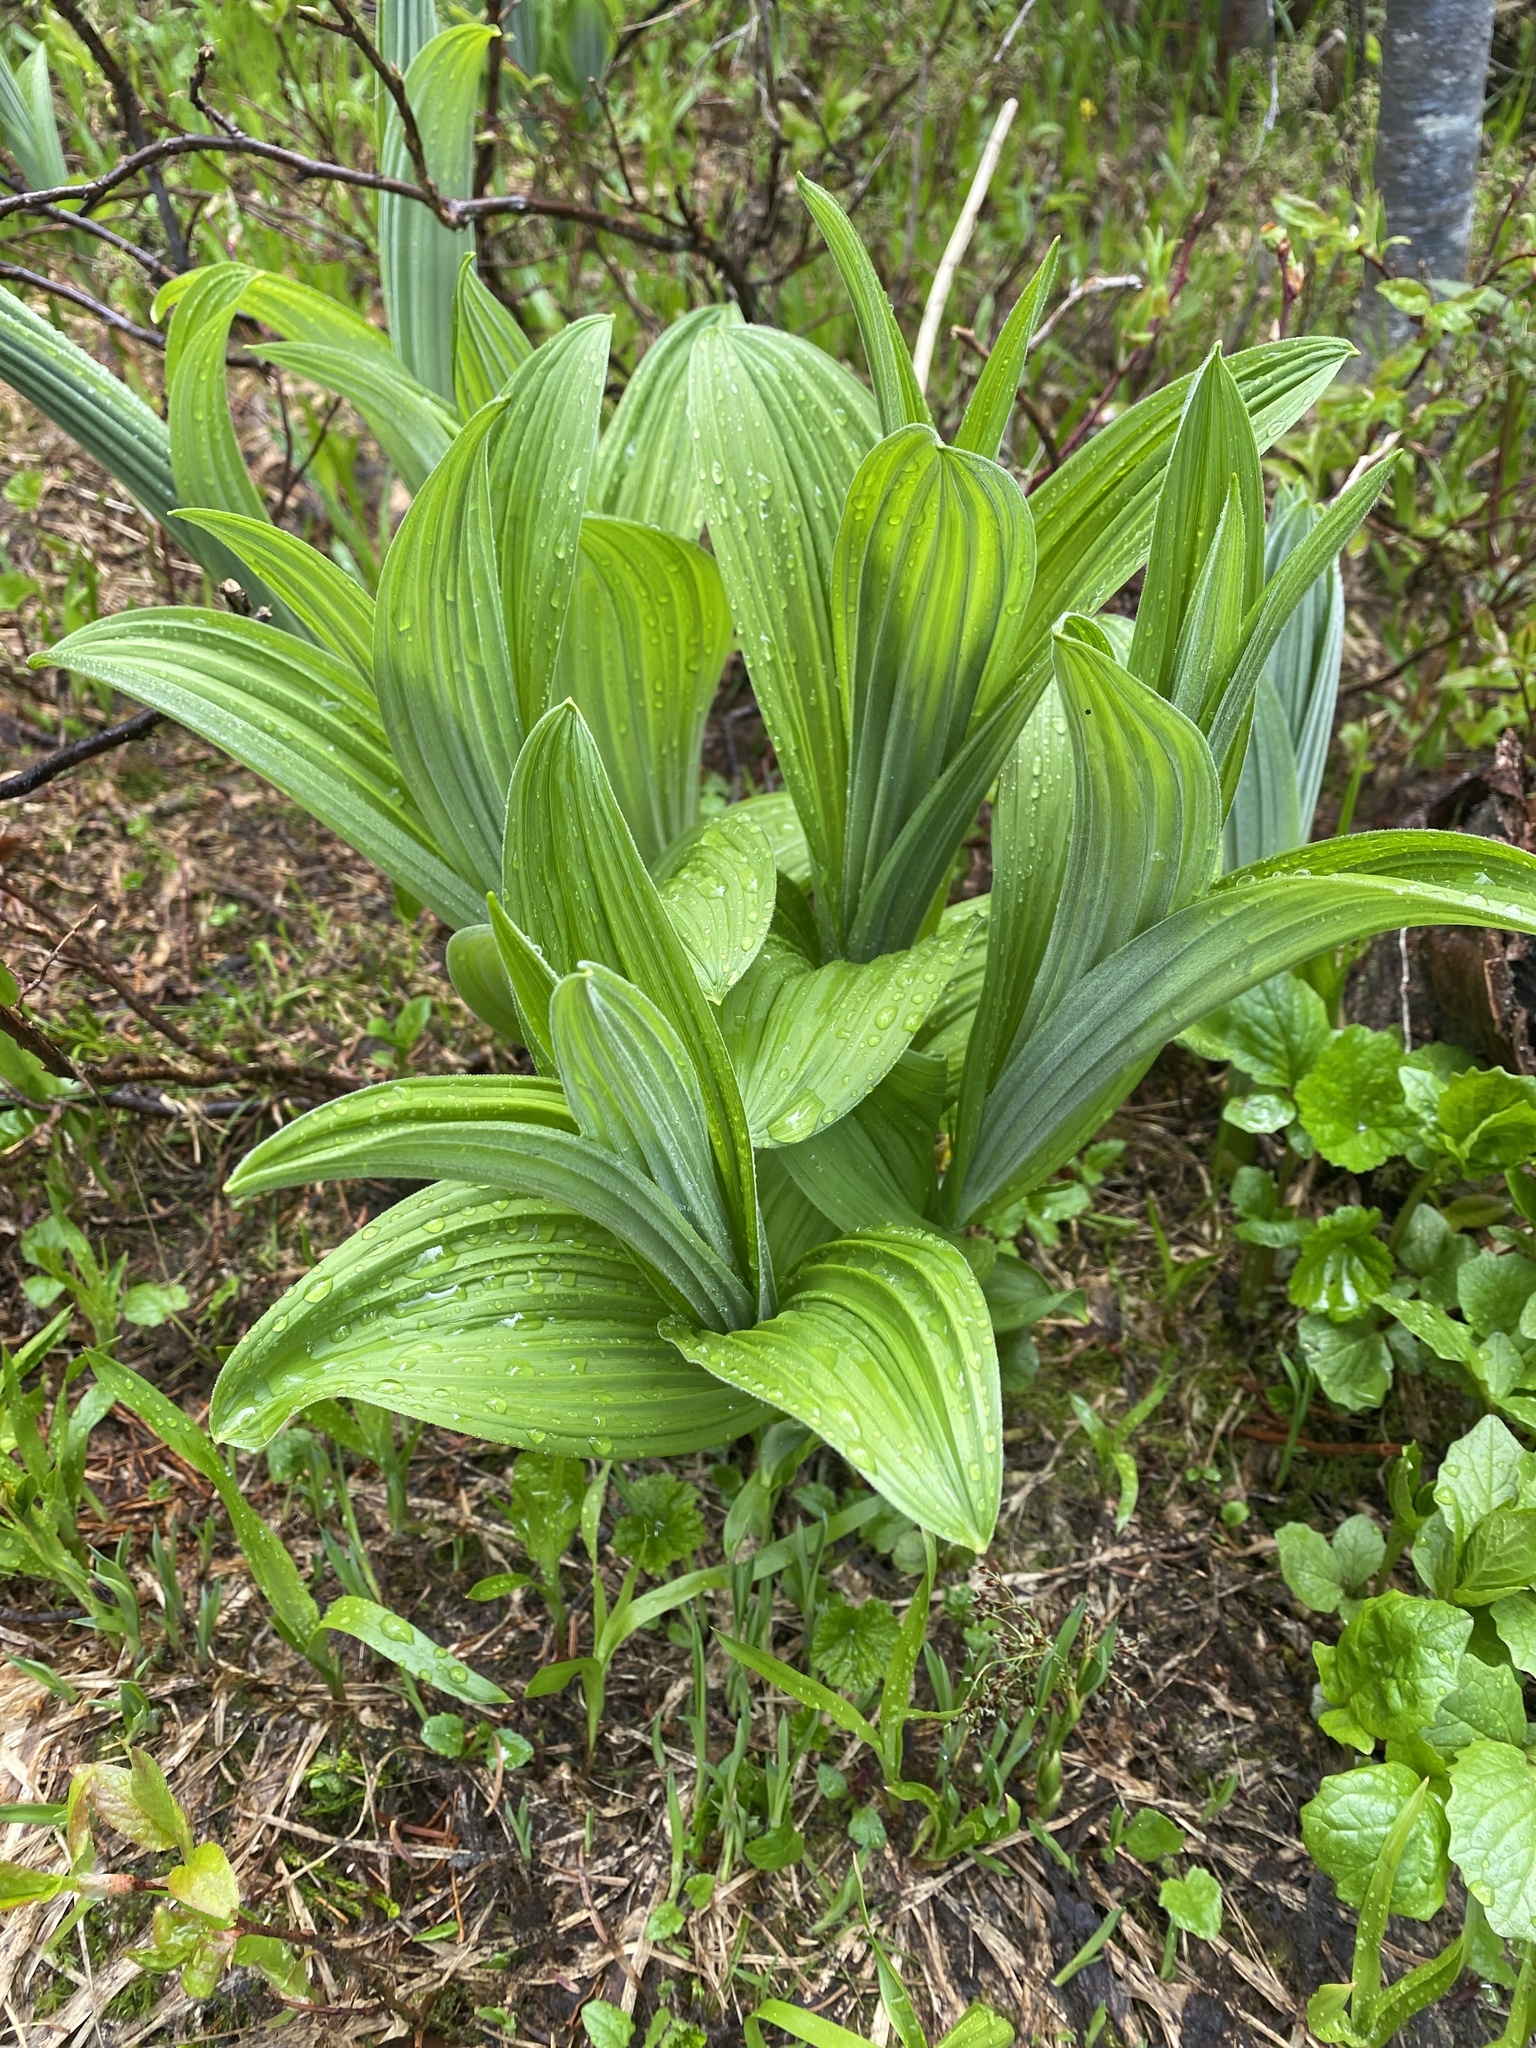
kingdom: Plantae
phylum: Tracheophyta
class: Liliopsida
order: Liliales
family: Melanthiaceae
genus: Veratrum
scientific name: Veratrum viride
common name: American false hellebore
